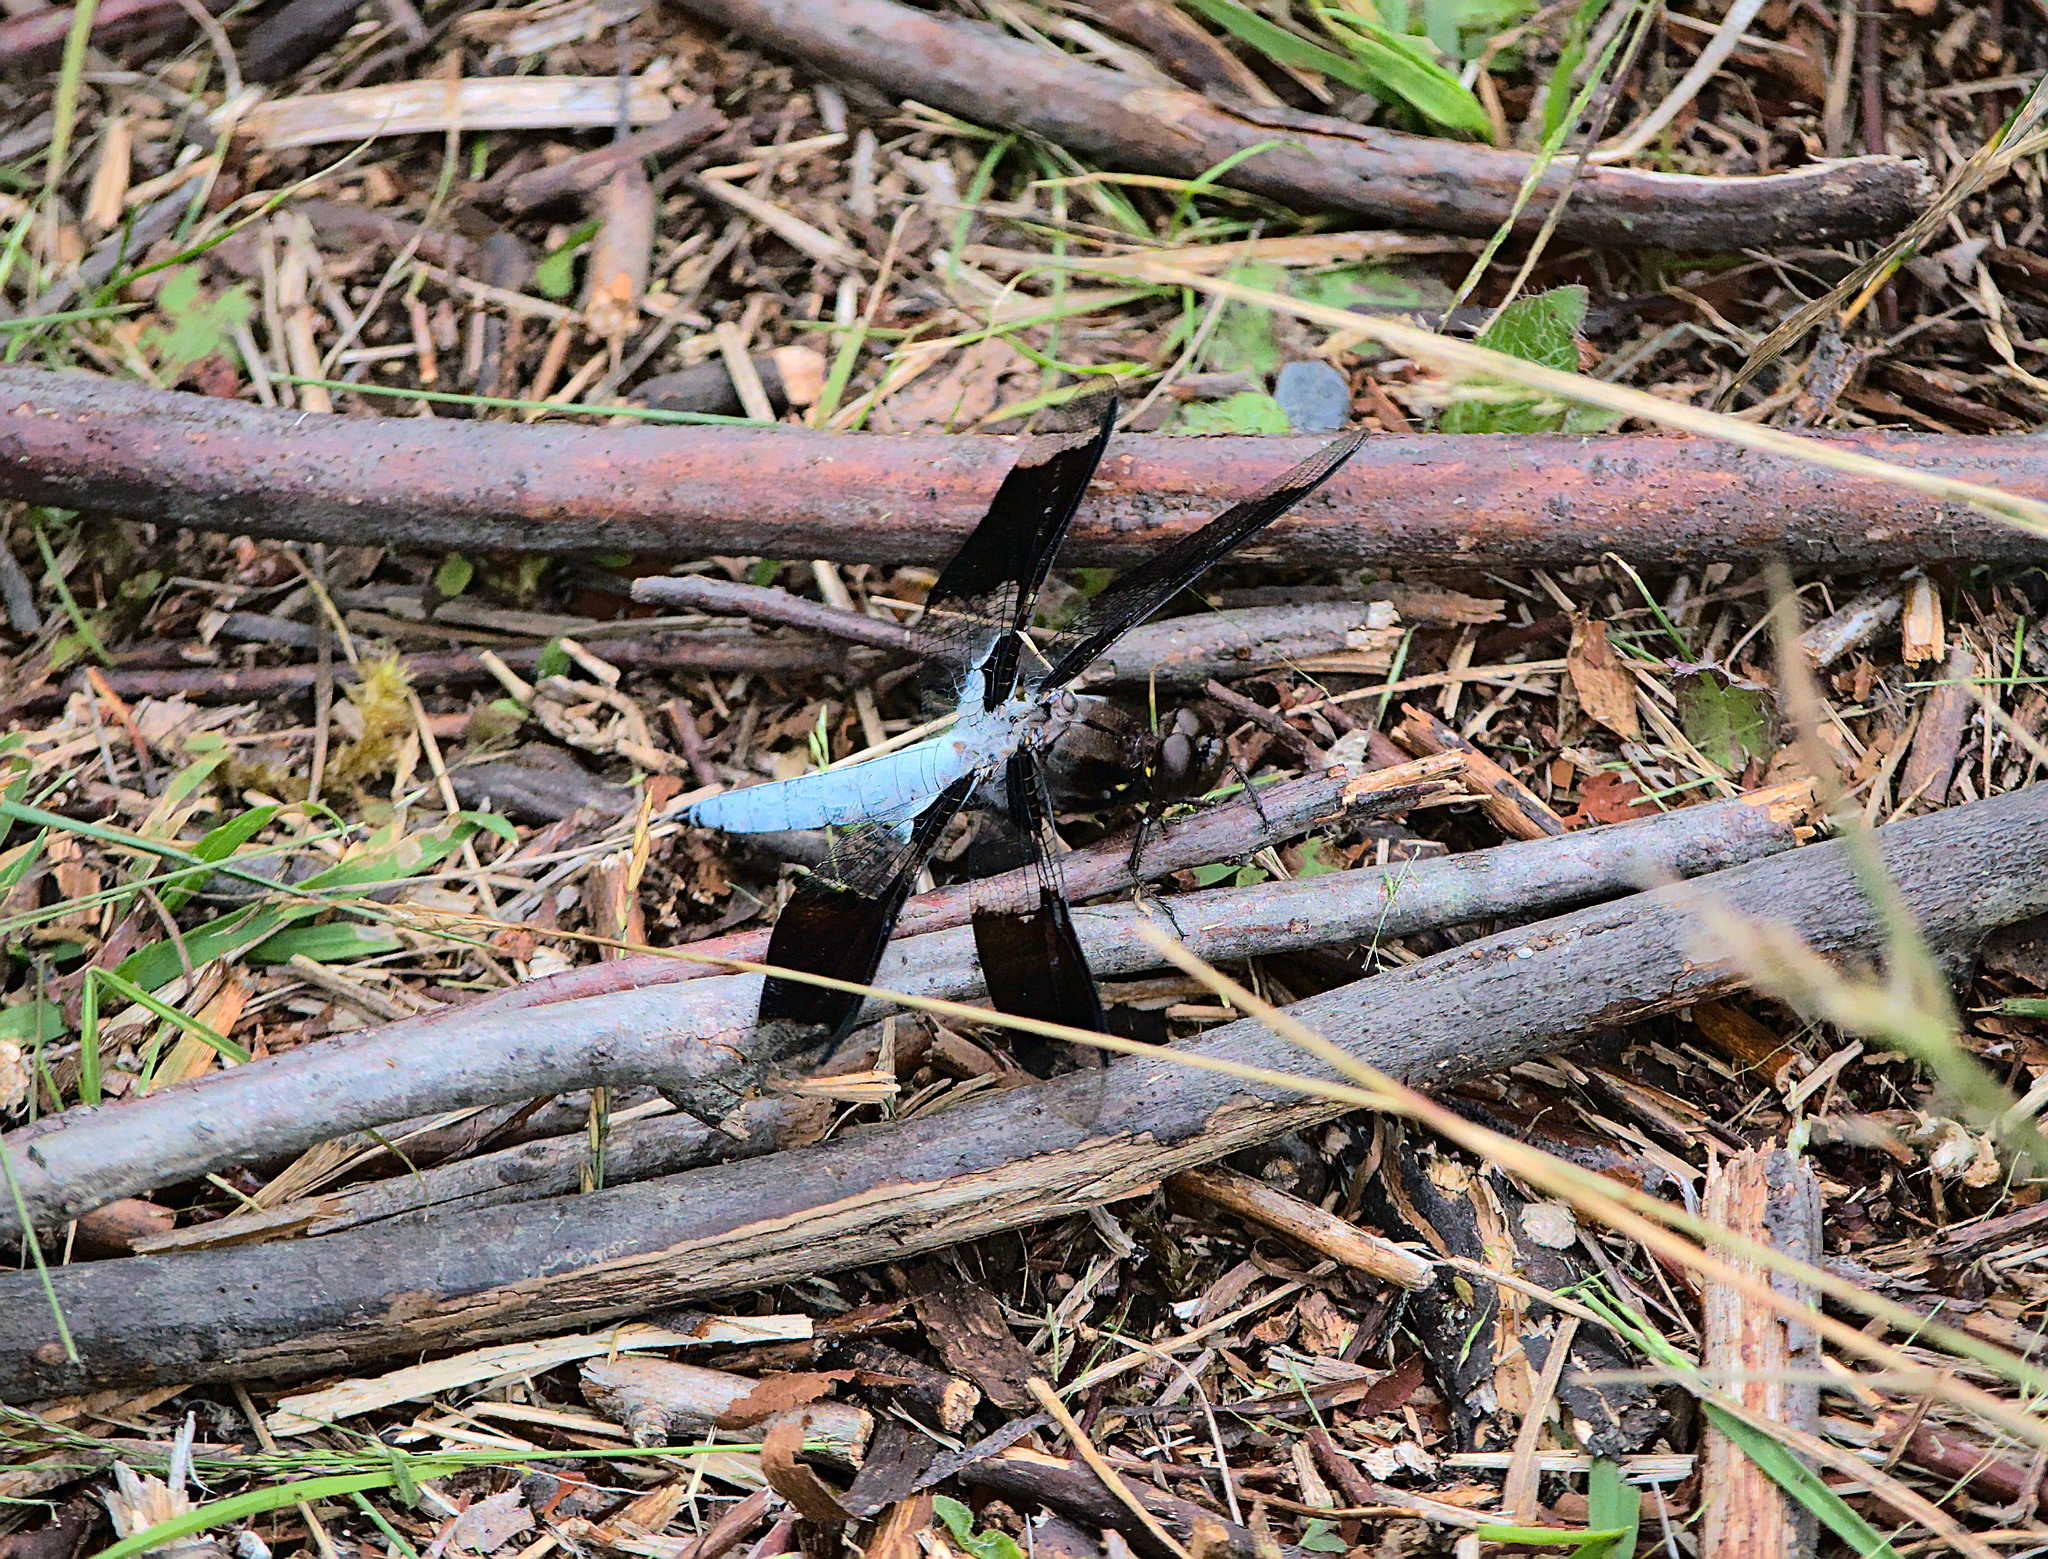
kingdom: Animalia
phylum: Arthropoda
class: Insecta
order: Odonata
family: Libellulidae
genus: Plathemis
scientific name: Plathemis lydia
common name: Common whitetail
